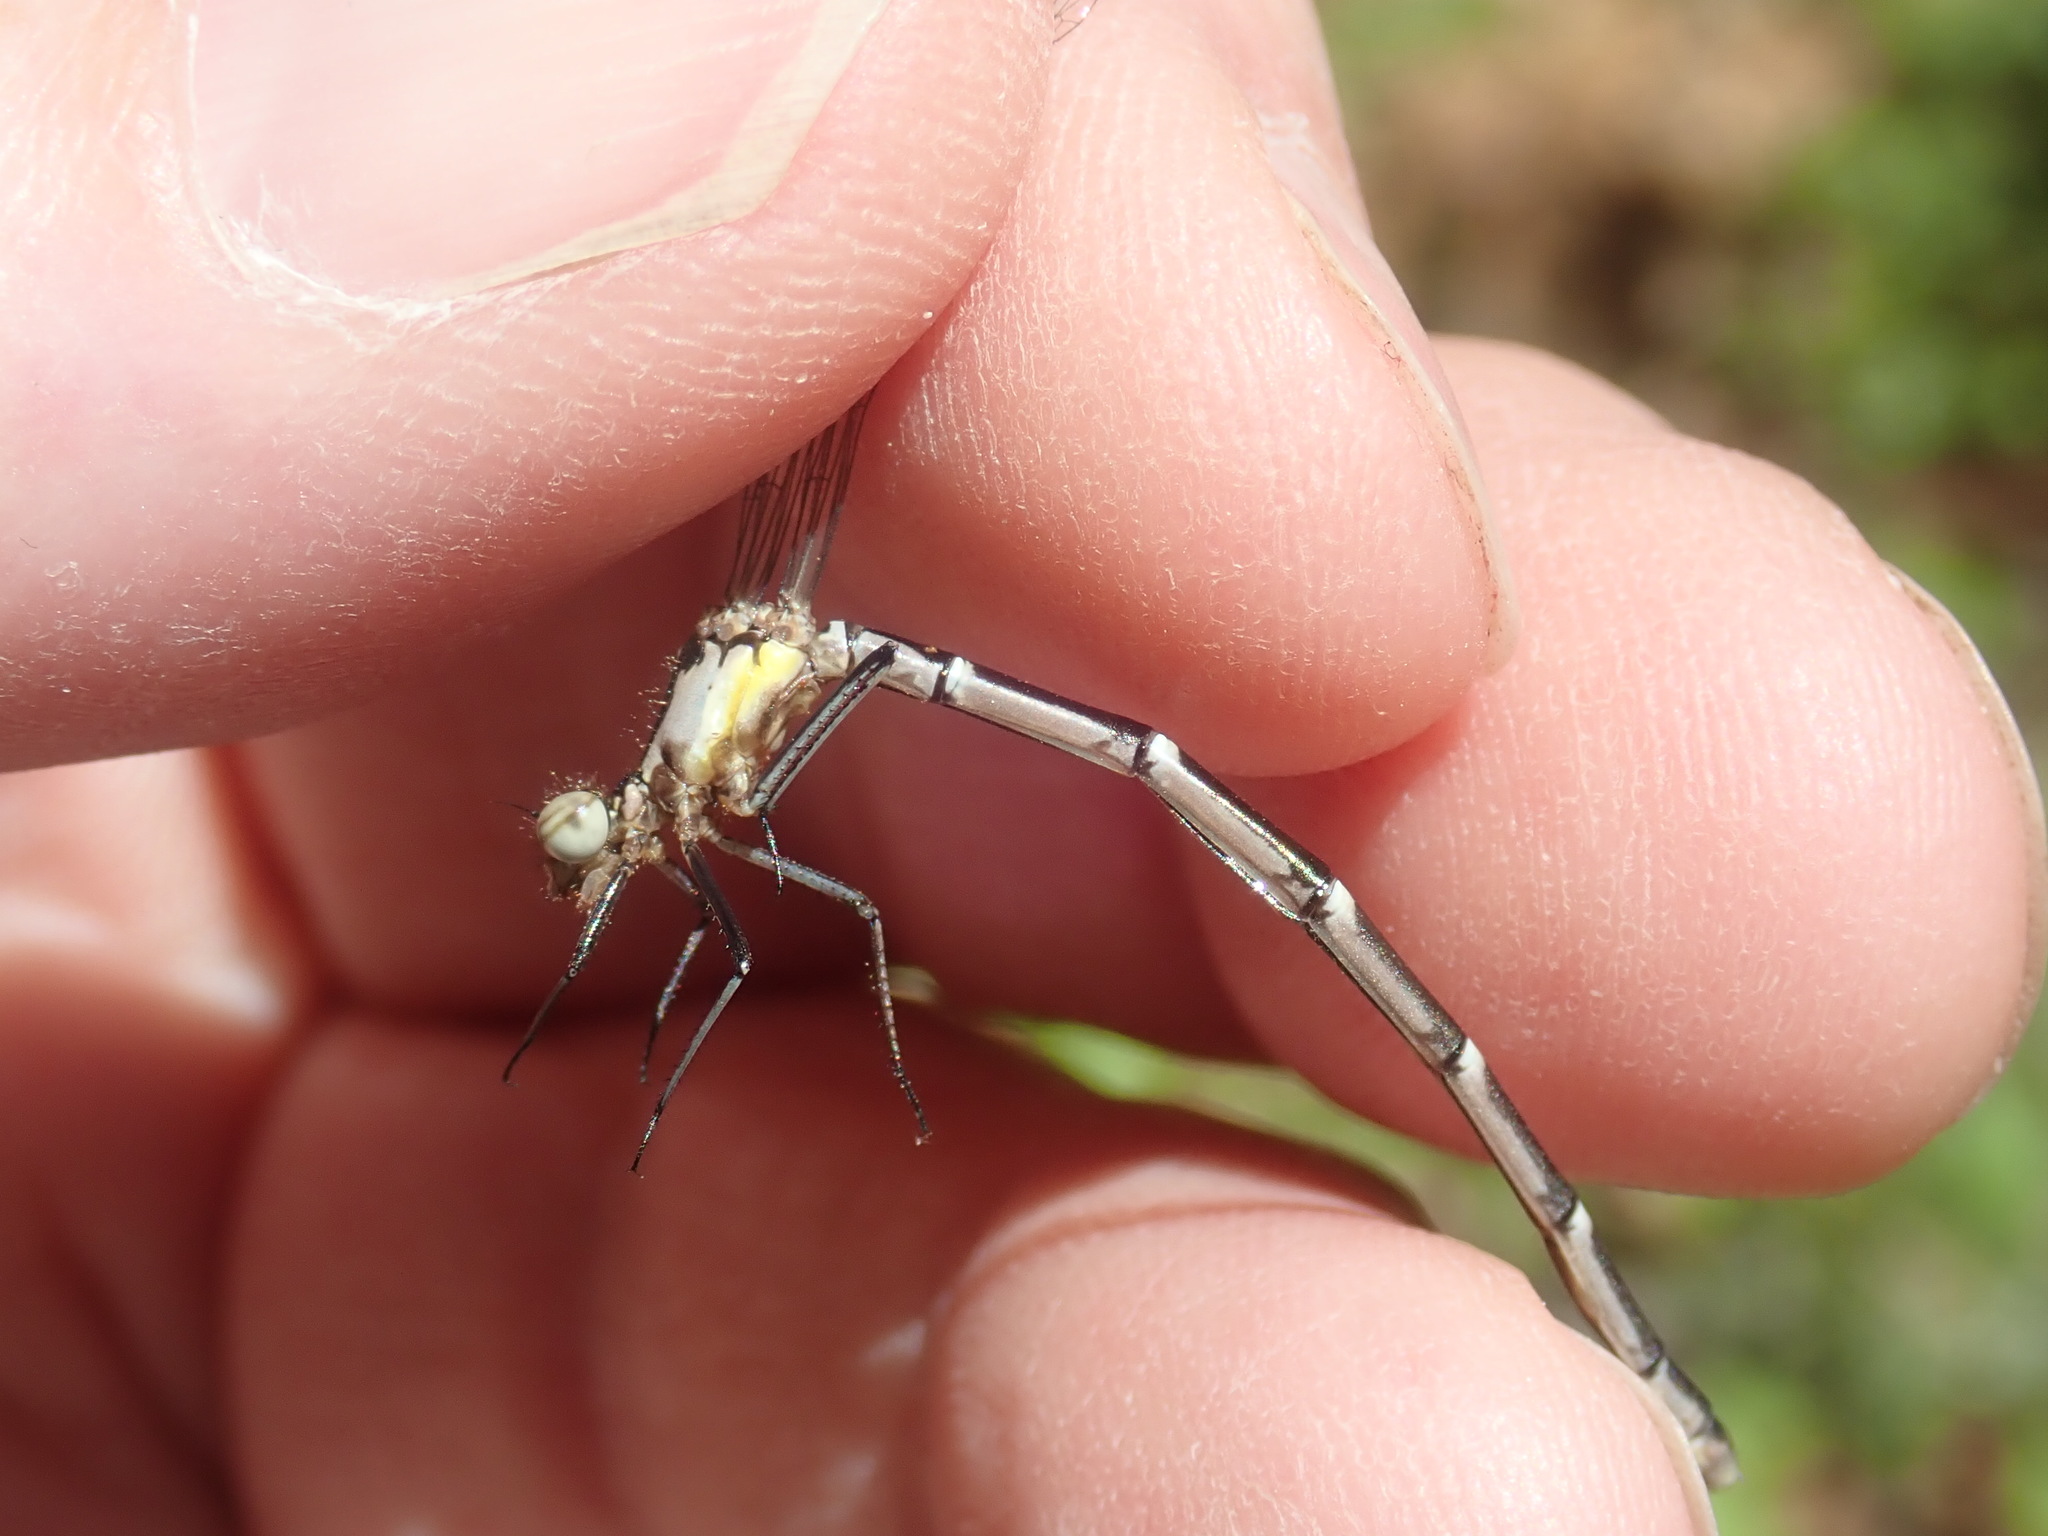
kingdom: Animalia
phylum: Arthropoda
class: Insecta
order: Odonata
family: Coenagrionidae
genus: Chromagrion
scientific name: Chromagrion conditum
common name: Aurora damsel
